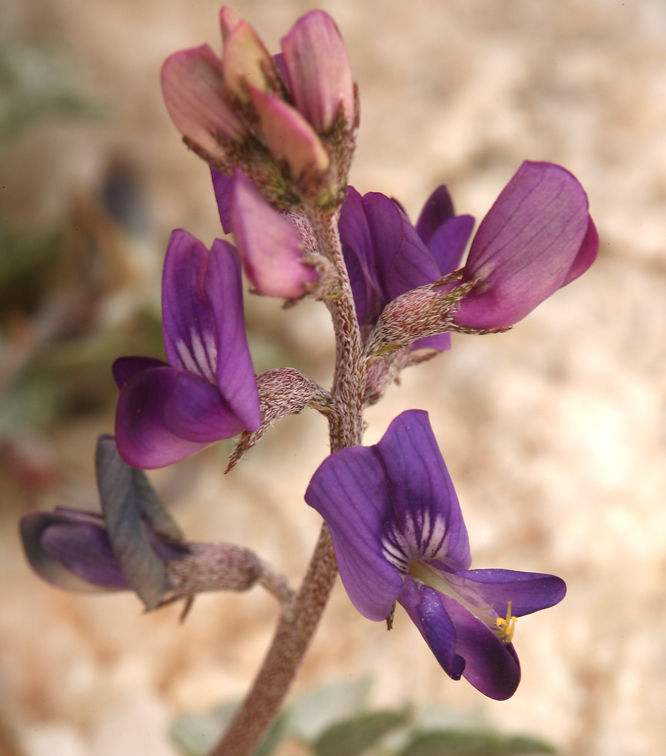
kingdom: Plantae
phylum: Tracheophyta
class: Magnoliopsida
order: Fabales
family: Fabaceae
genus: Astragalus
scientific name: Astragalus albens
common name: Cushenbury milk-vetch
